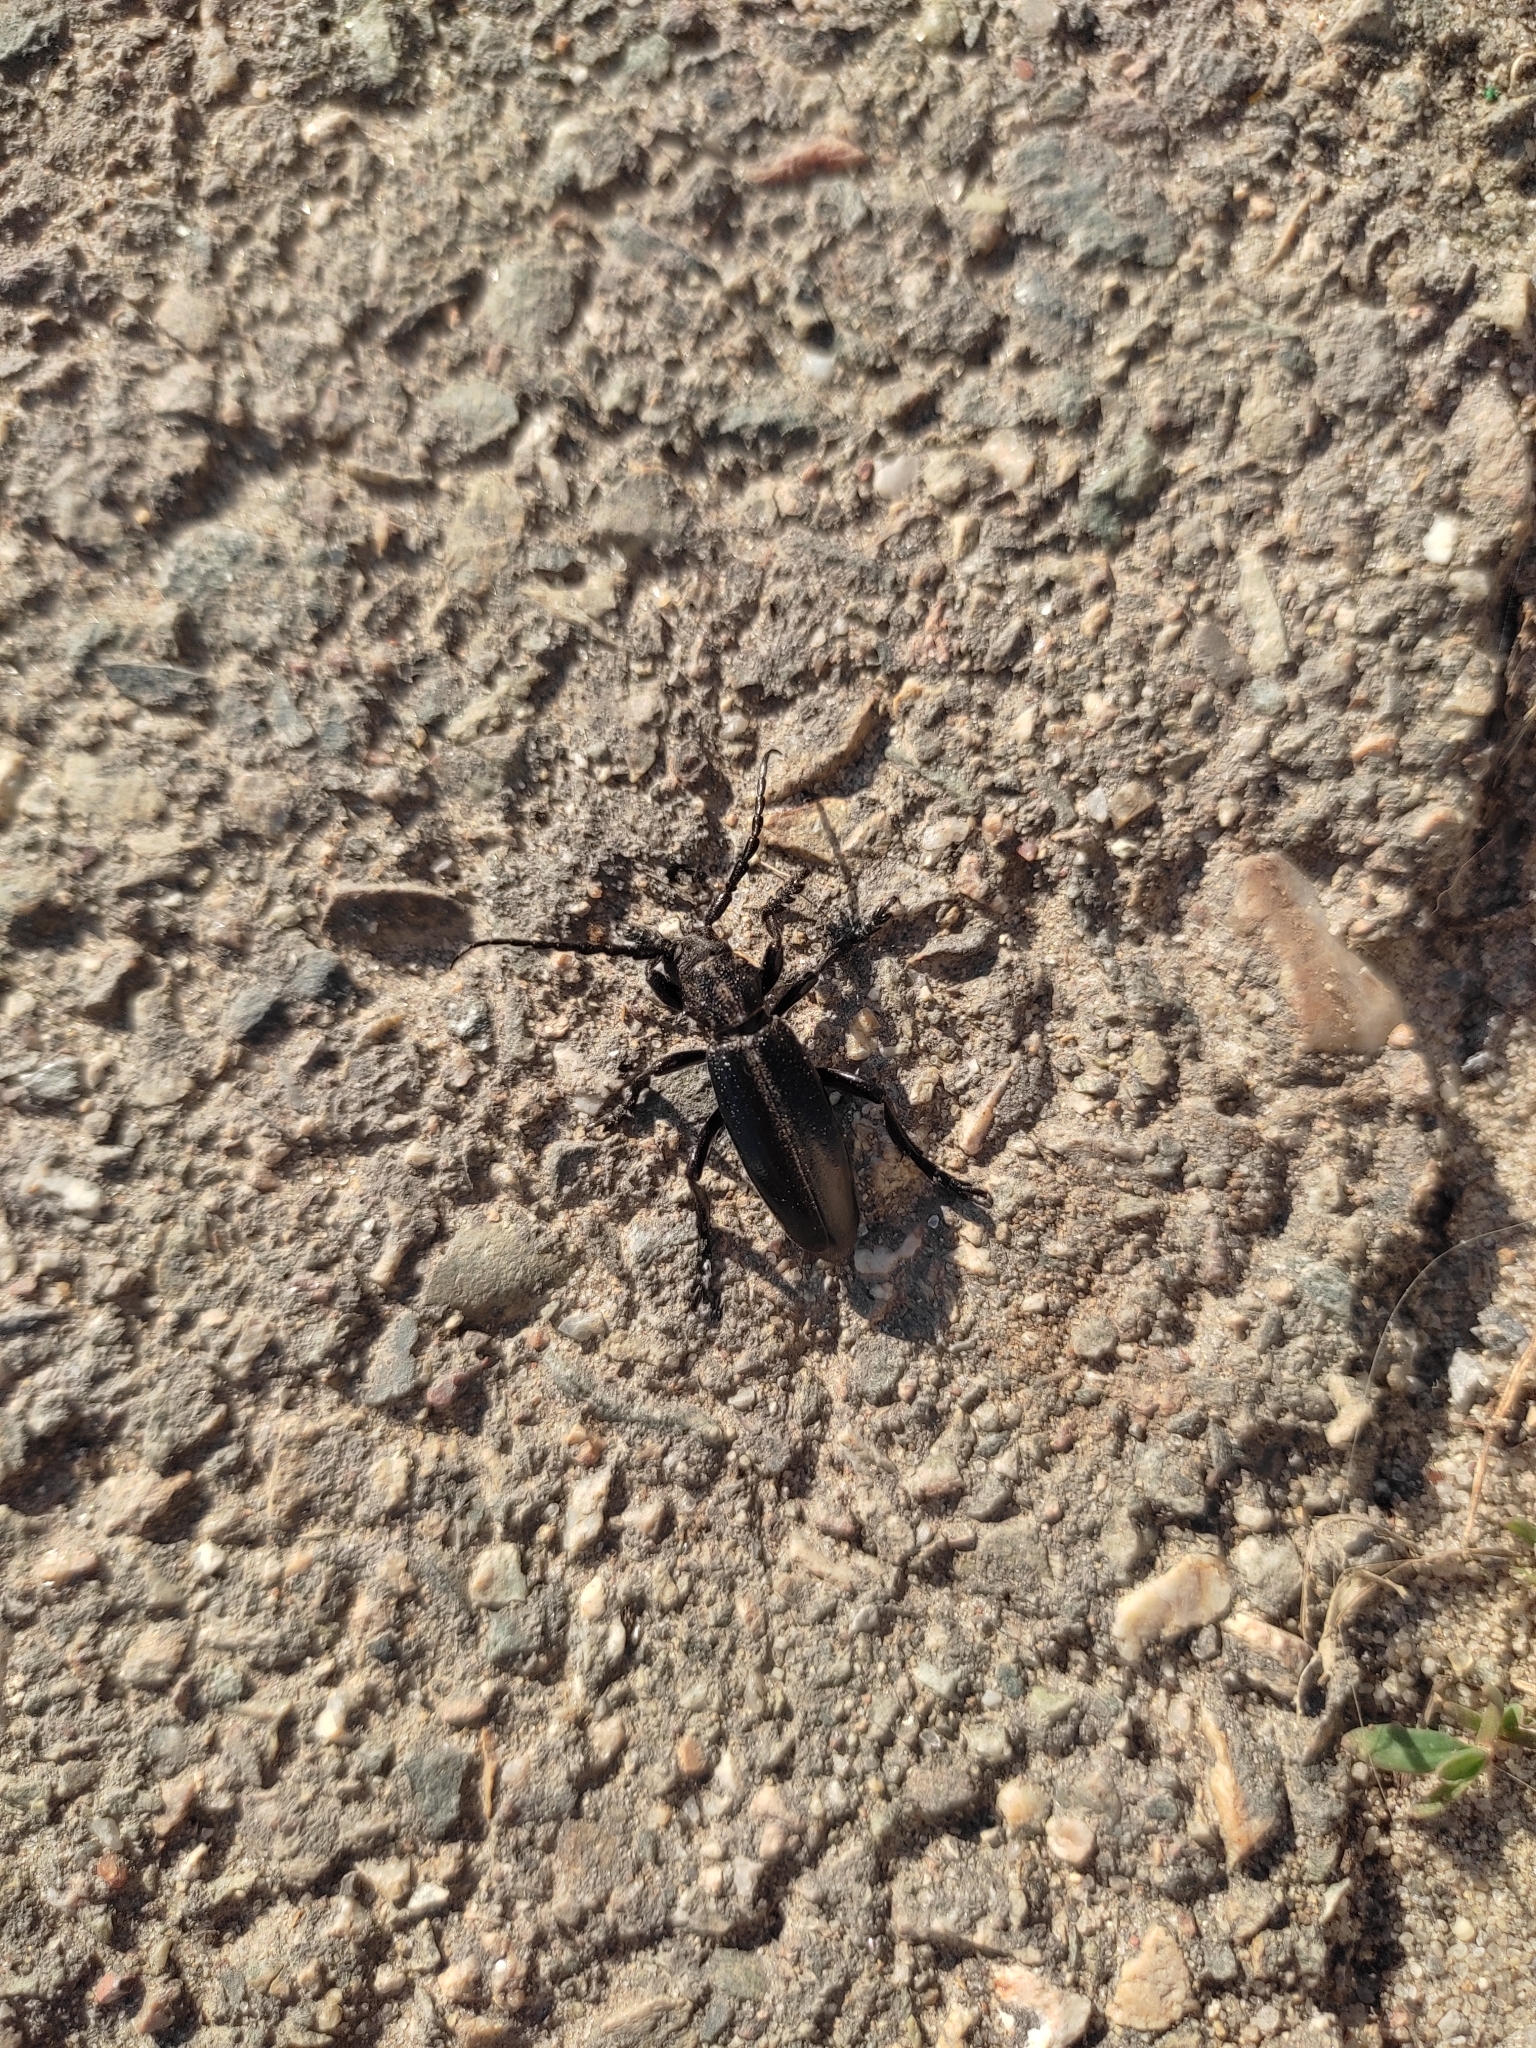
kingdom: Animalia
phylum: Arthropoda
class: Insecta
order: Coleoptera
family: Cerambycidae
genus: Dorcadion
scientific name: Dorcadion carinatum
